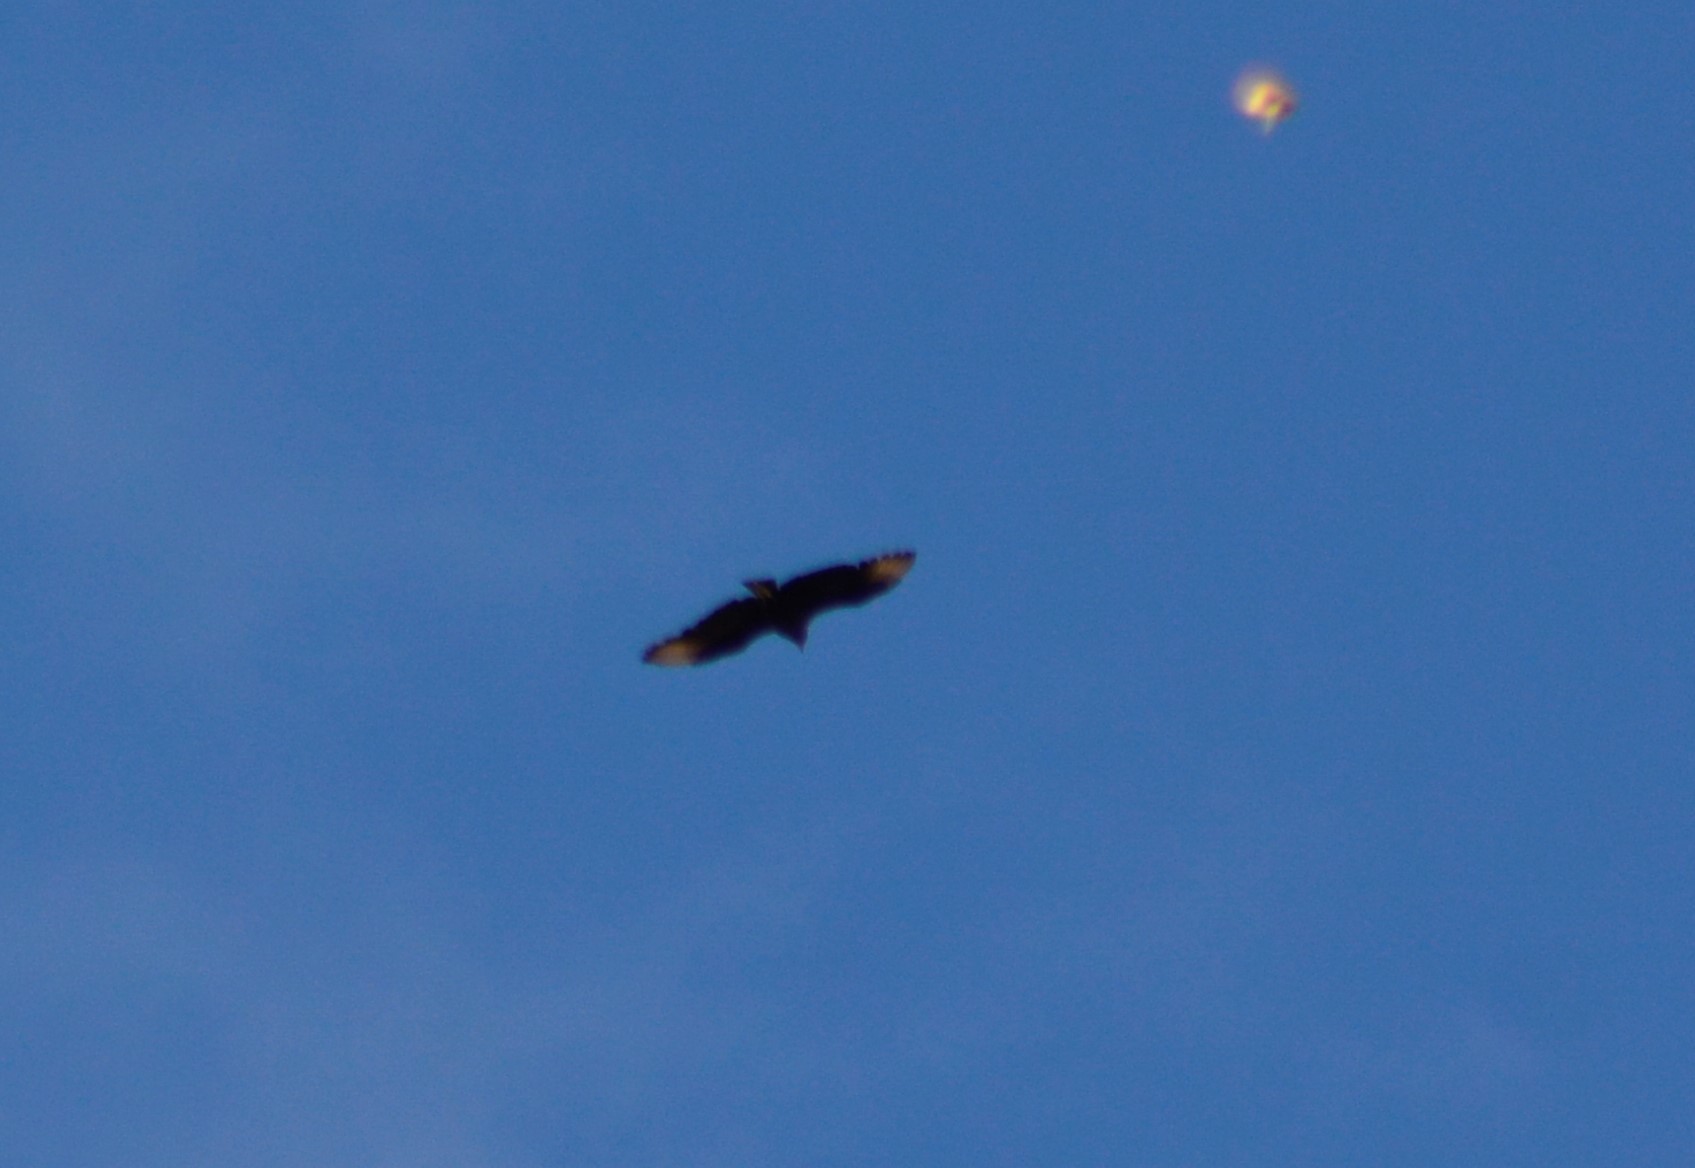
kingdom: Animalia
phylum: Chordata
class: Aves
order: Accipitriformes
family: Cathartidae
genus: Coragyps
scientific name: Coragyps atratus
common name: Black vulture
